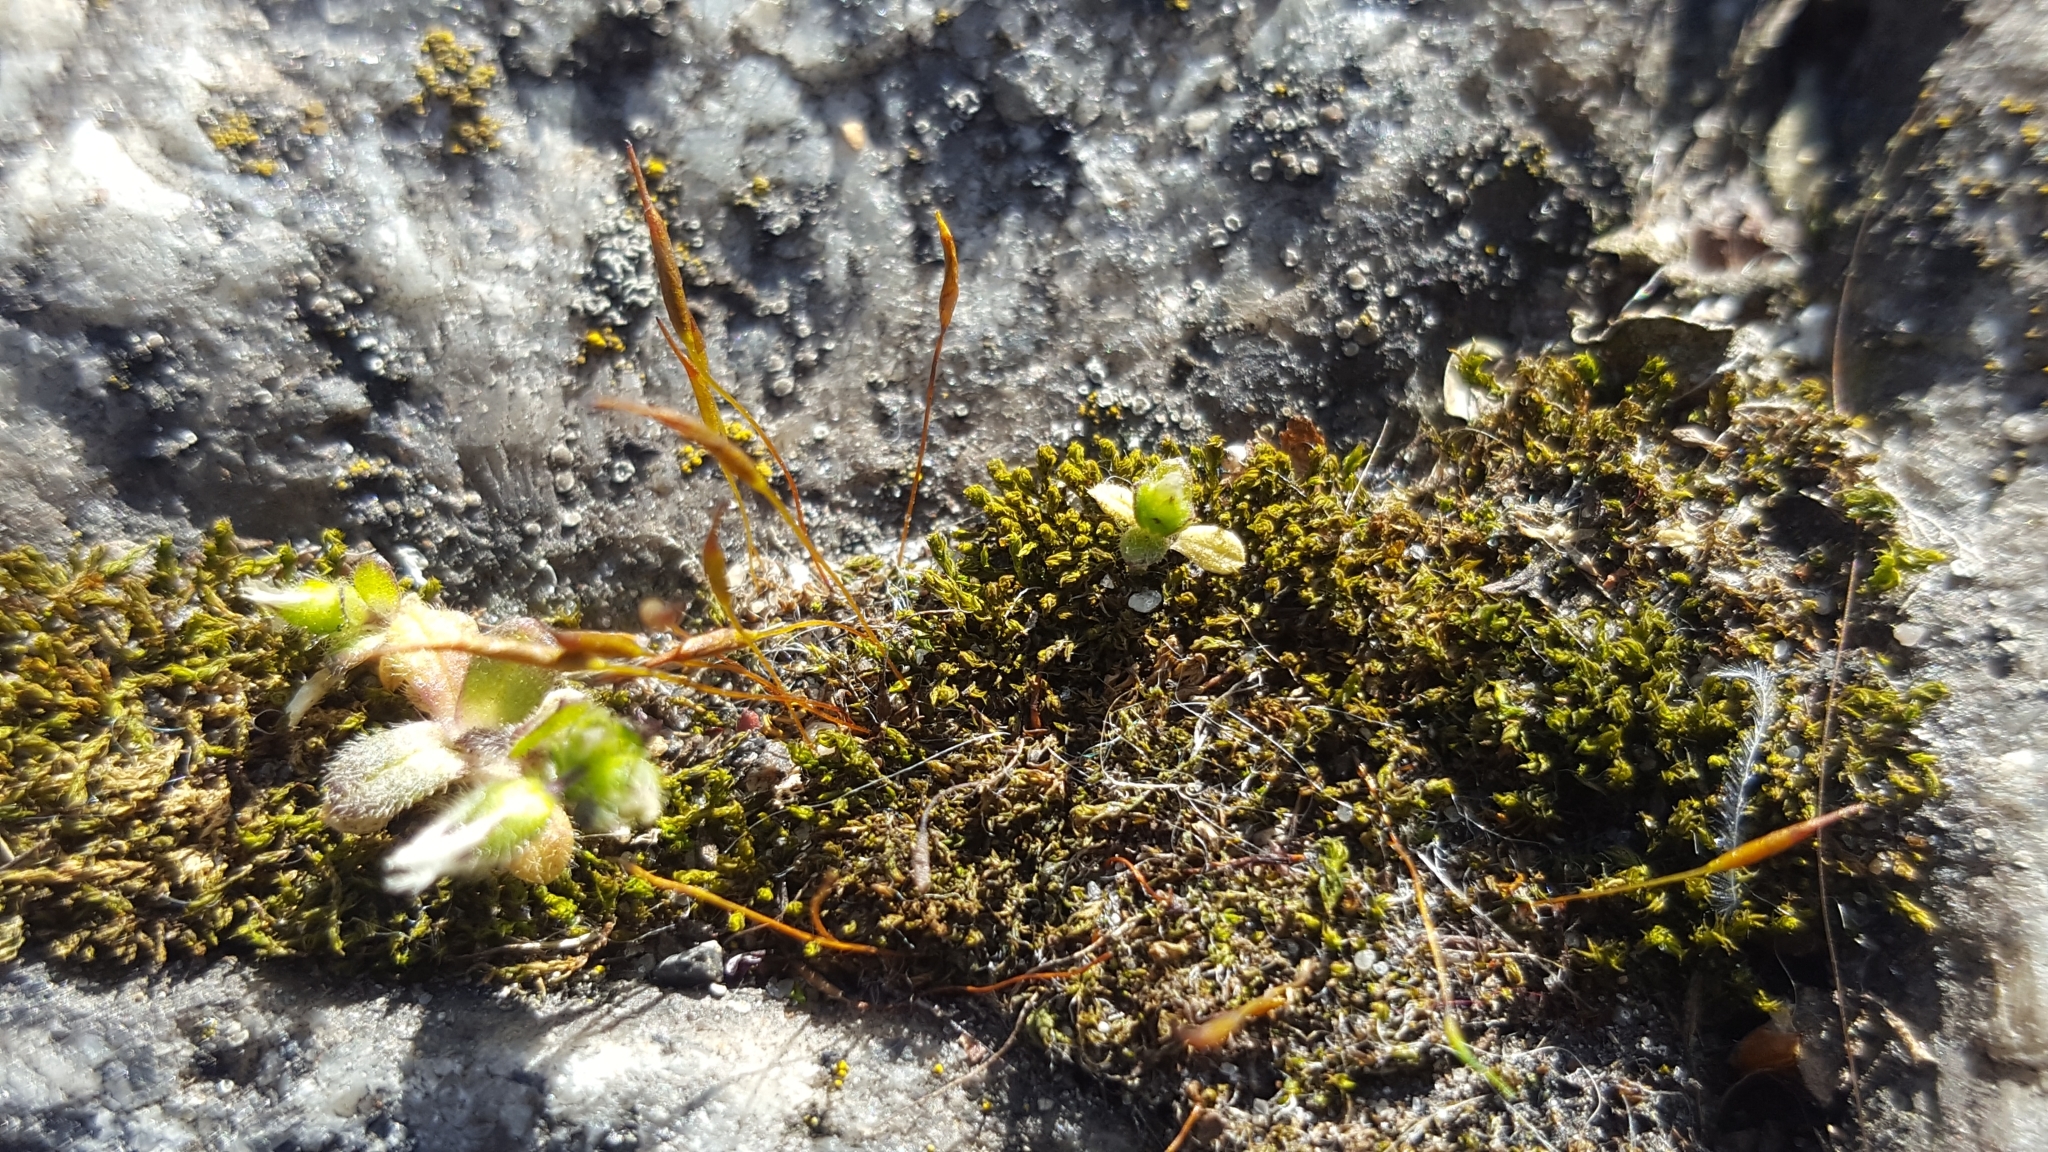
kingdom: Plantae
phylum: Bryophyta
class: Bryopsida
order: Pottiales
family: Pottiaceae
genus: Tortula
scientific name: Tortula muralis
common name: Wall screw-moss
